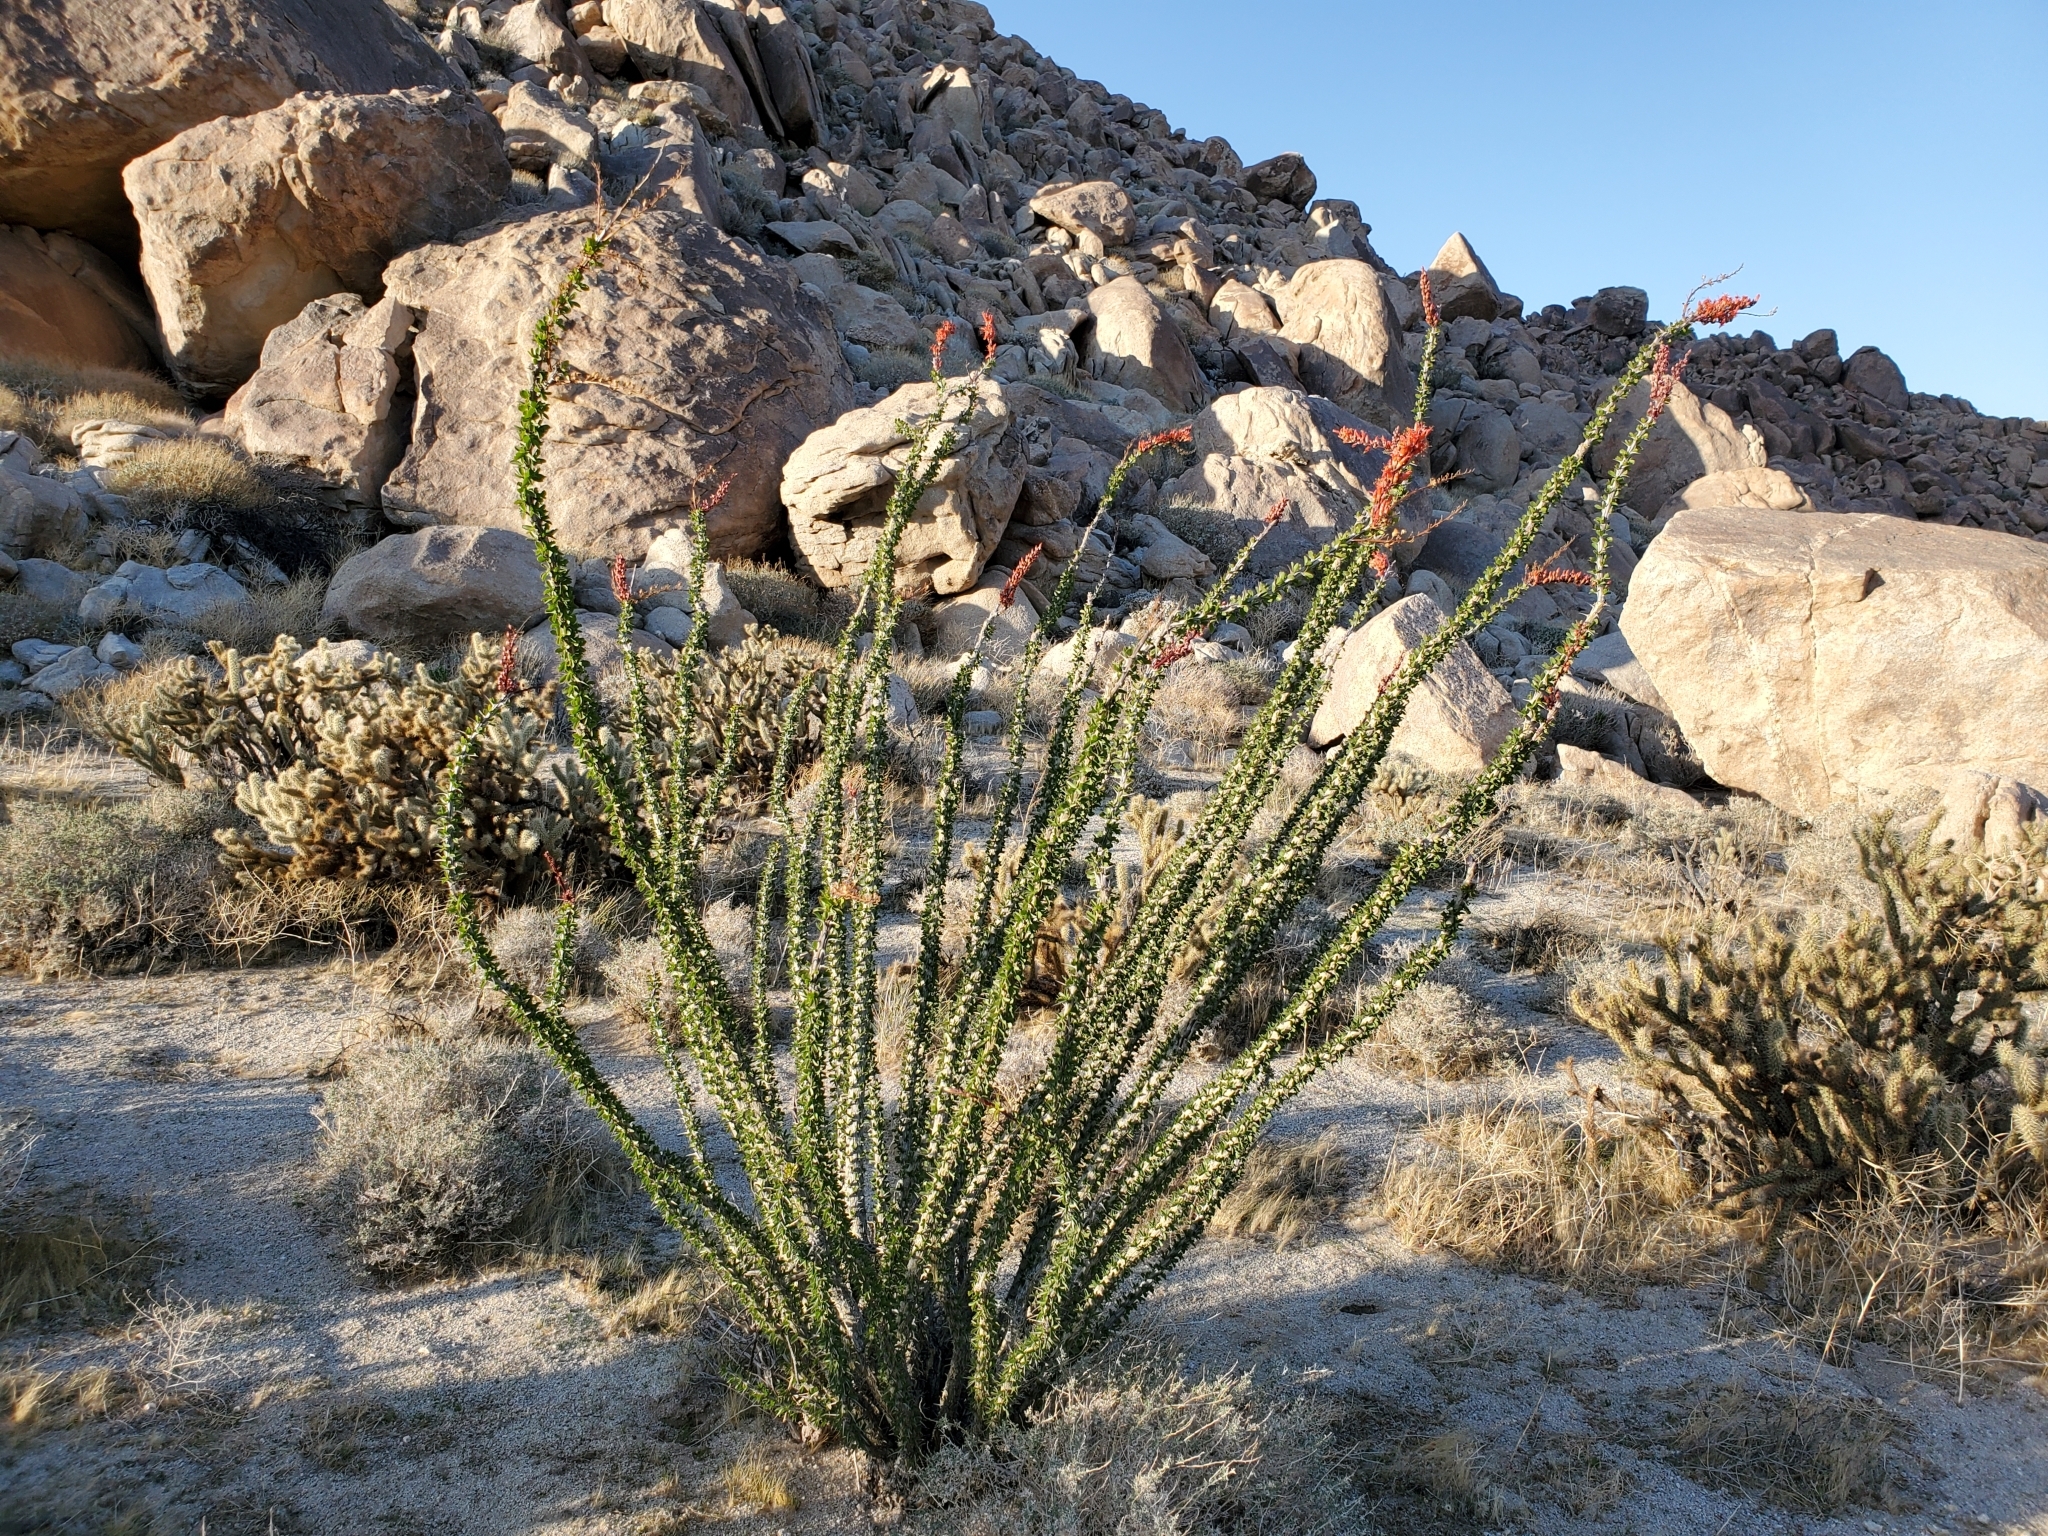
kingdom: Plantae
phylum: Tracheophyta
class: Magnoliopsida
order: Ericales
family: Fouquieriaceae
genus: Fouquieria
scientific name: Fouquieria splendens
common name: Vine-cactus
